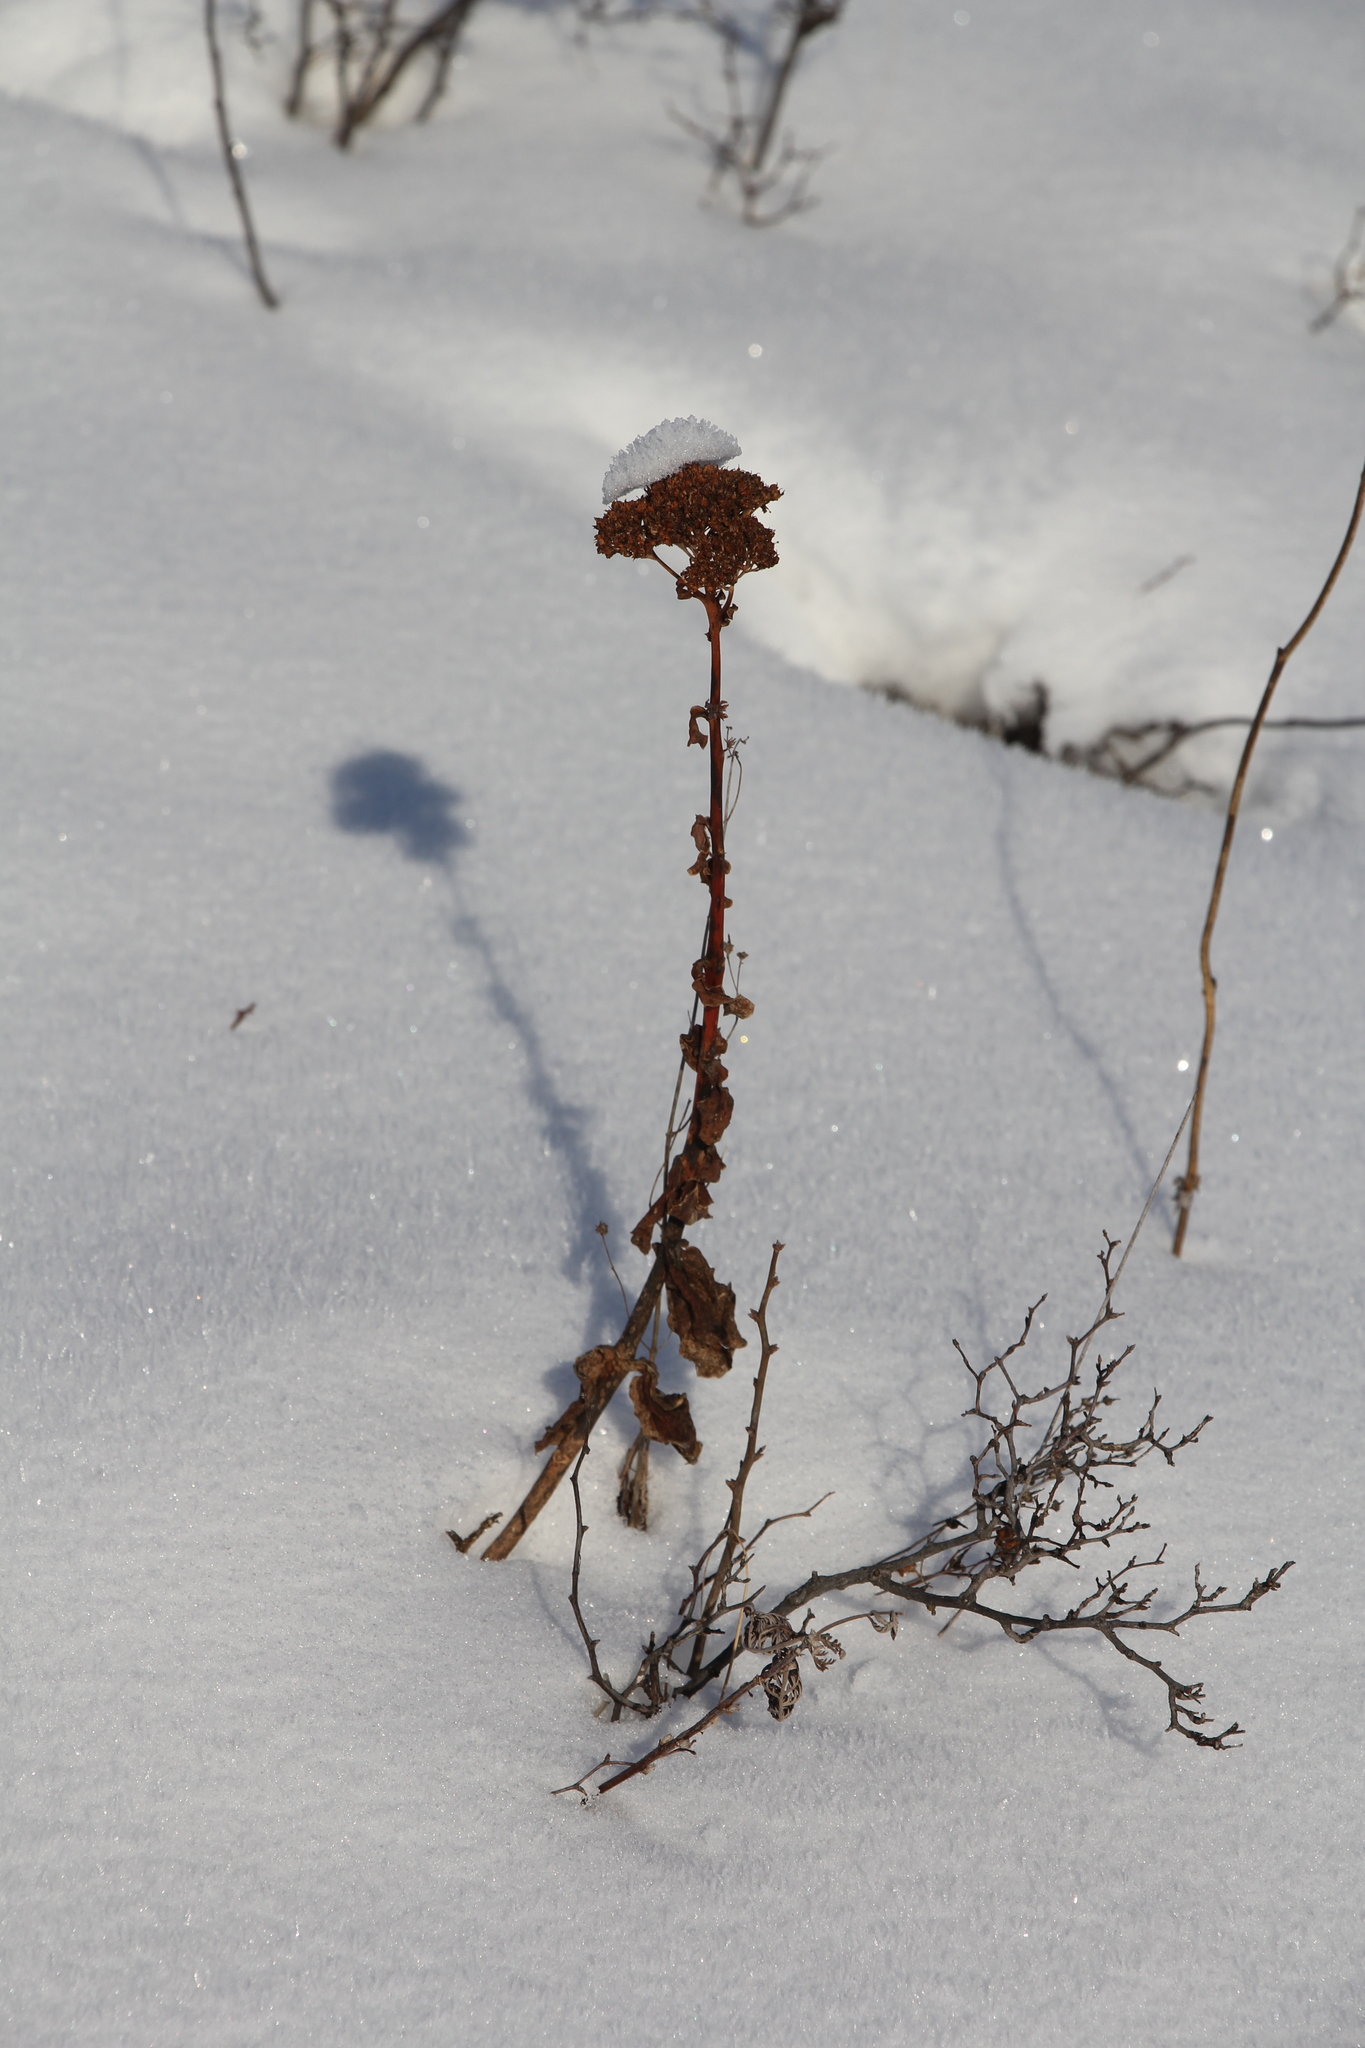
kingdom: Plantae
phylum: Tracheophyta
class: Magnoliopsida
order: Saxifragales
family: Crassulaceae
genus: Hylotelephium
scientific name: Hylotelephium telephium
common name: Live-forever
